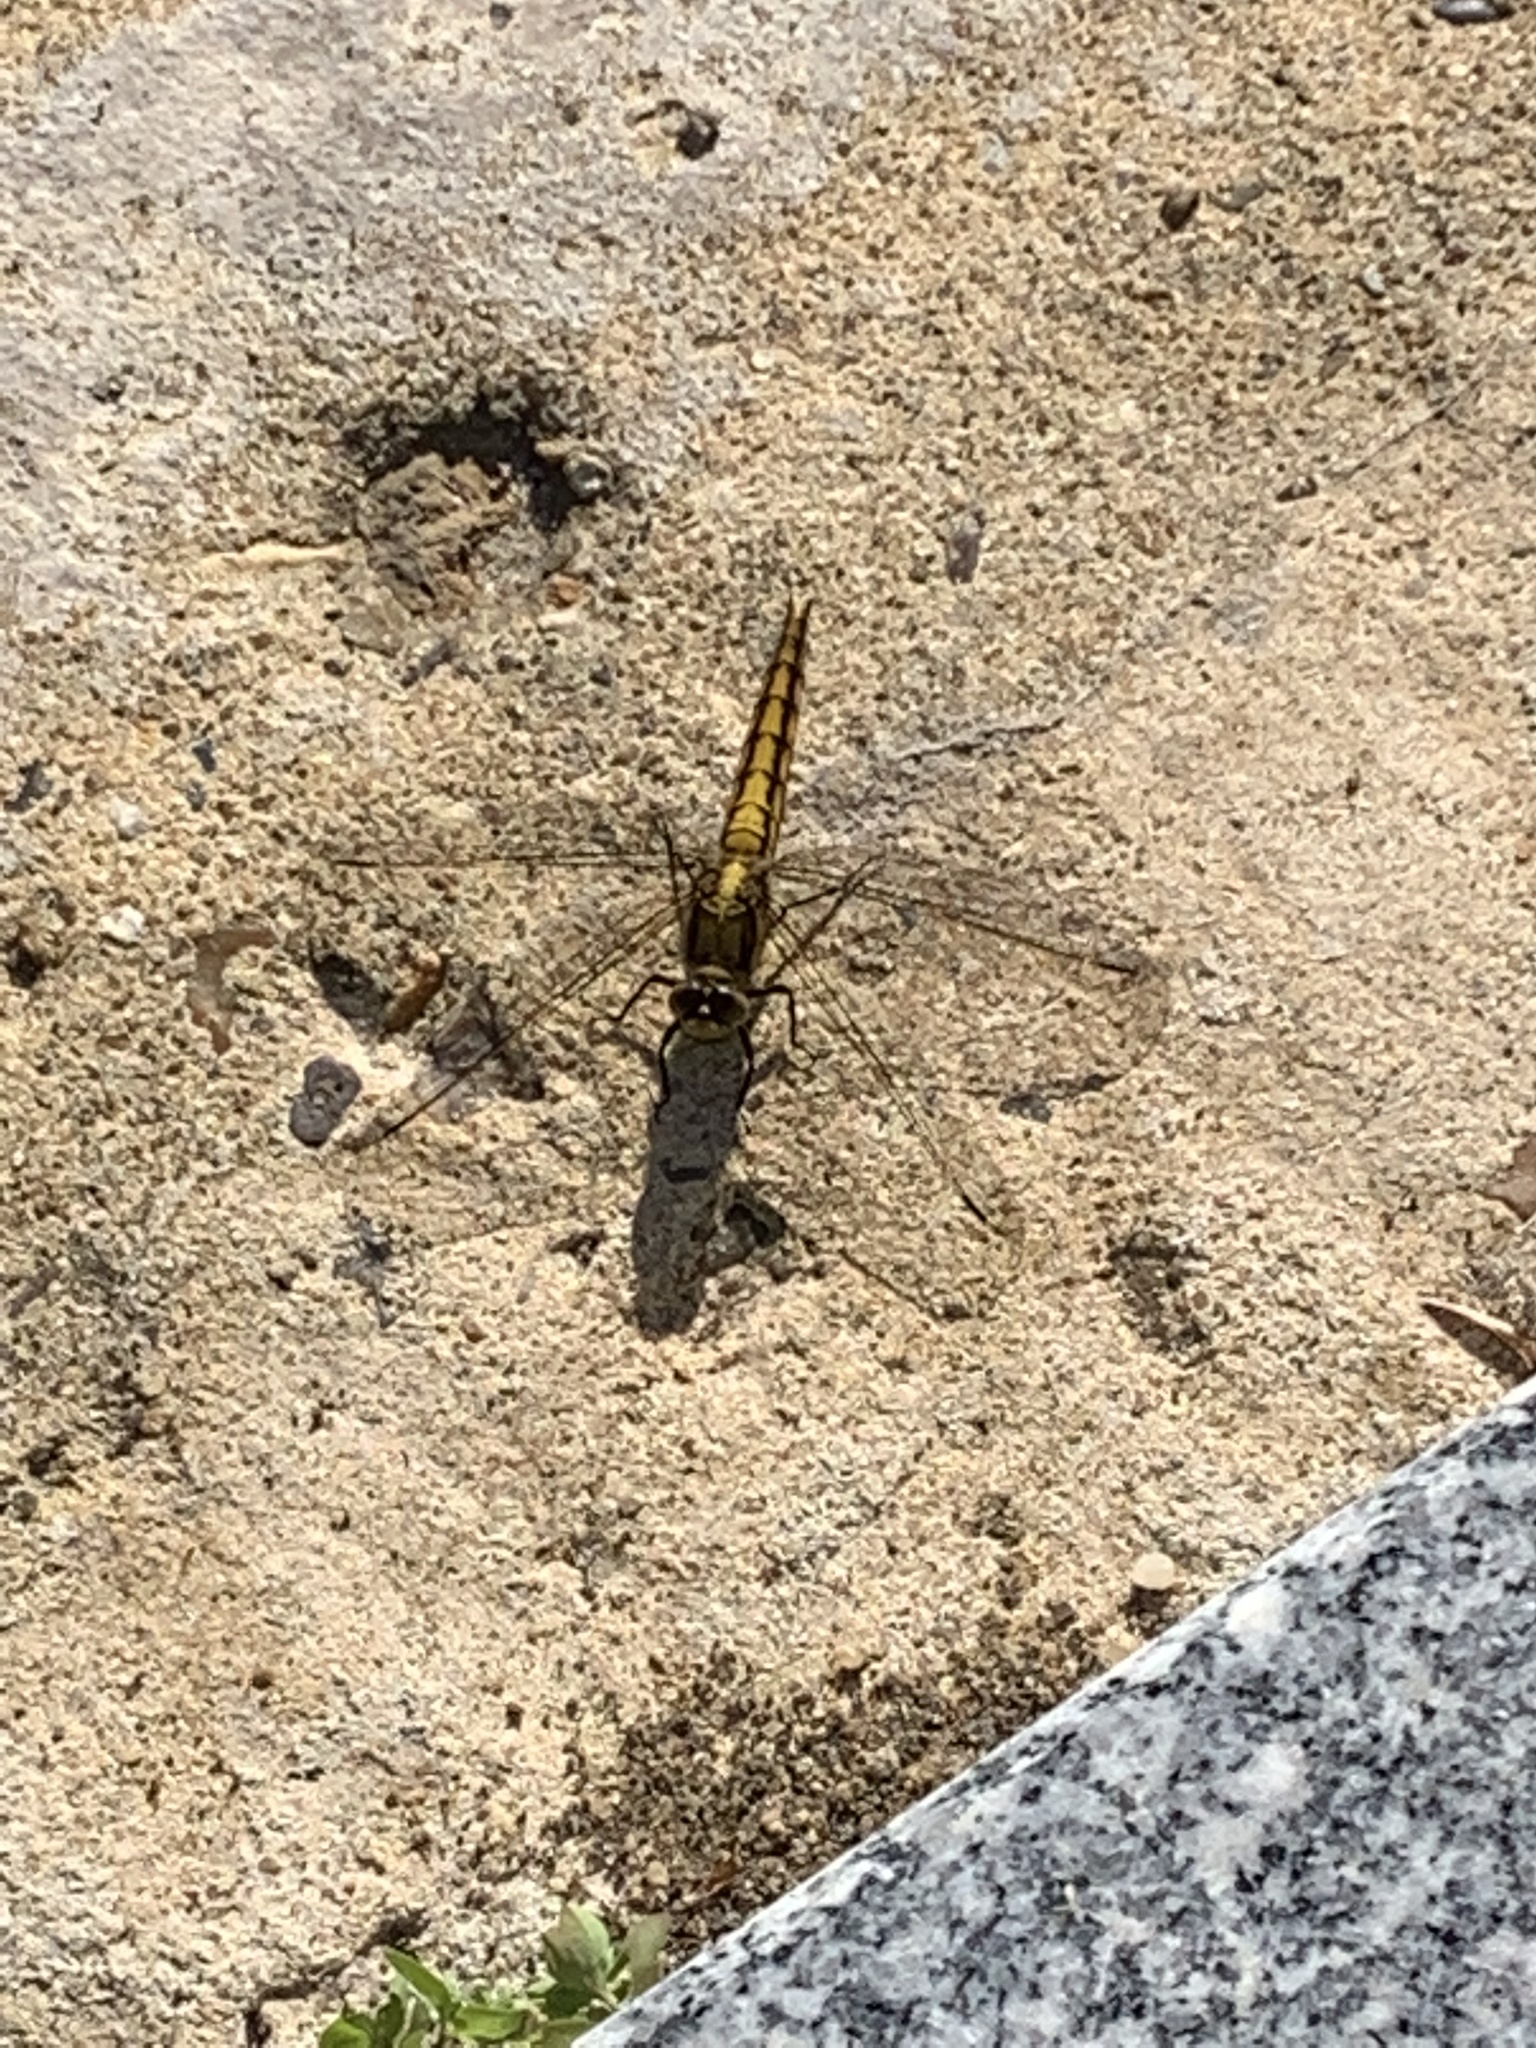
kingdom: Animalia
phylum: Arthropoda
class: Insecta
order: Odonata
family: Libellulidae
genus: Orthetrum
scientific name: Orthetrum cancellatum
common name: Black-tailed skimmer
